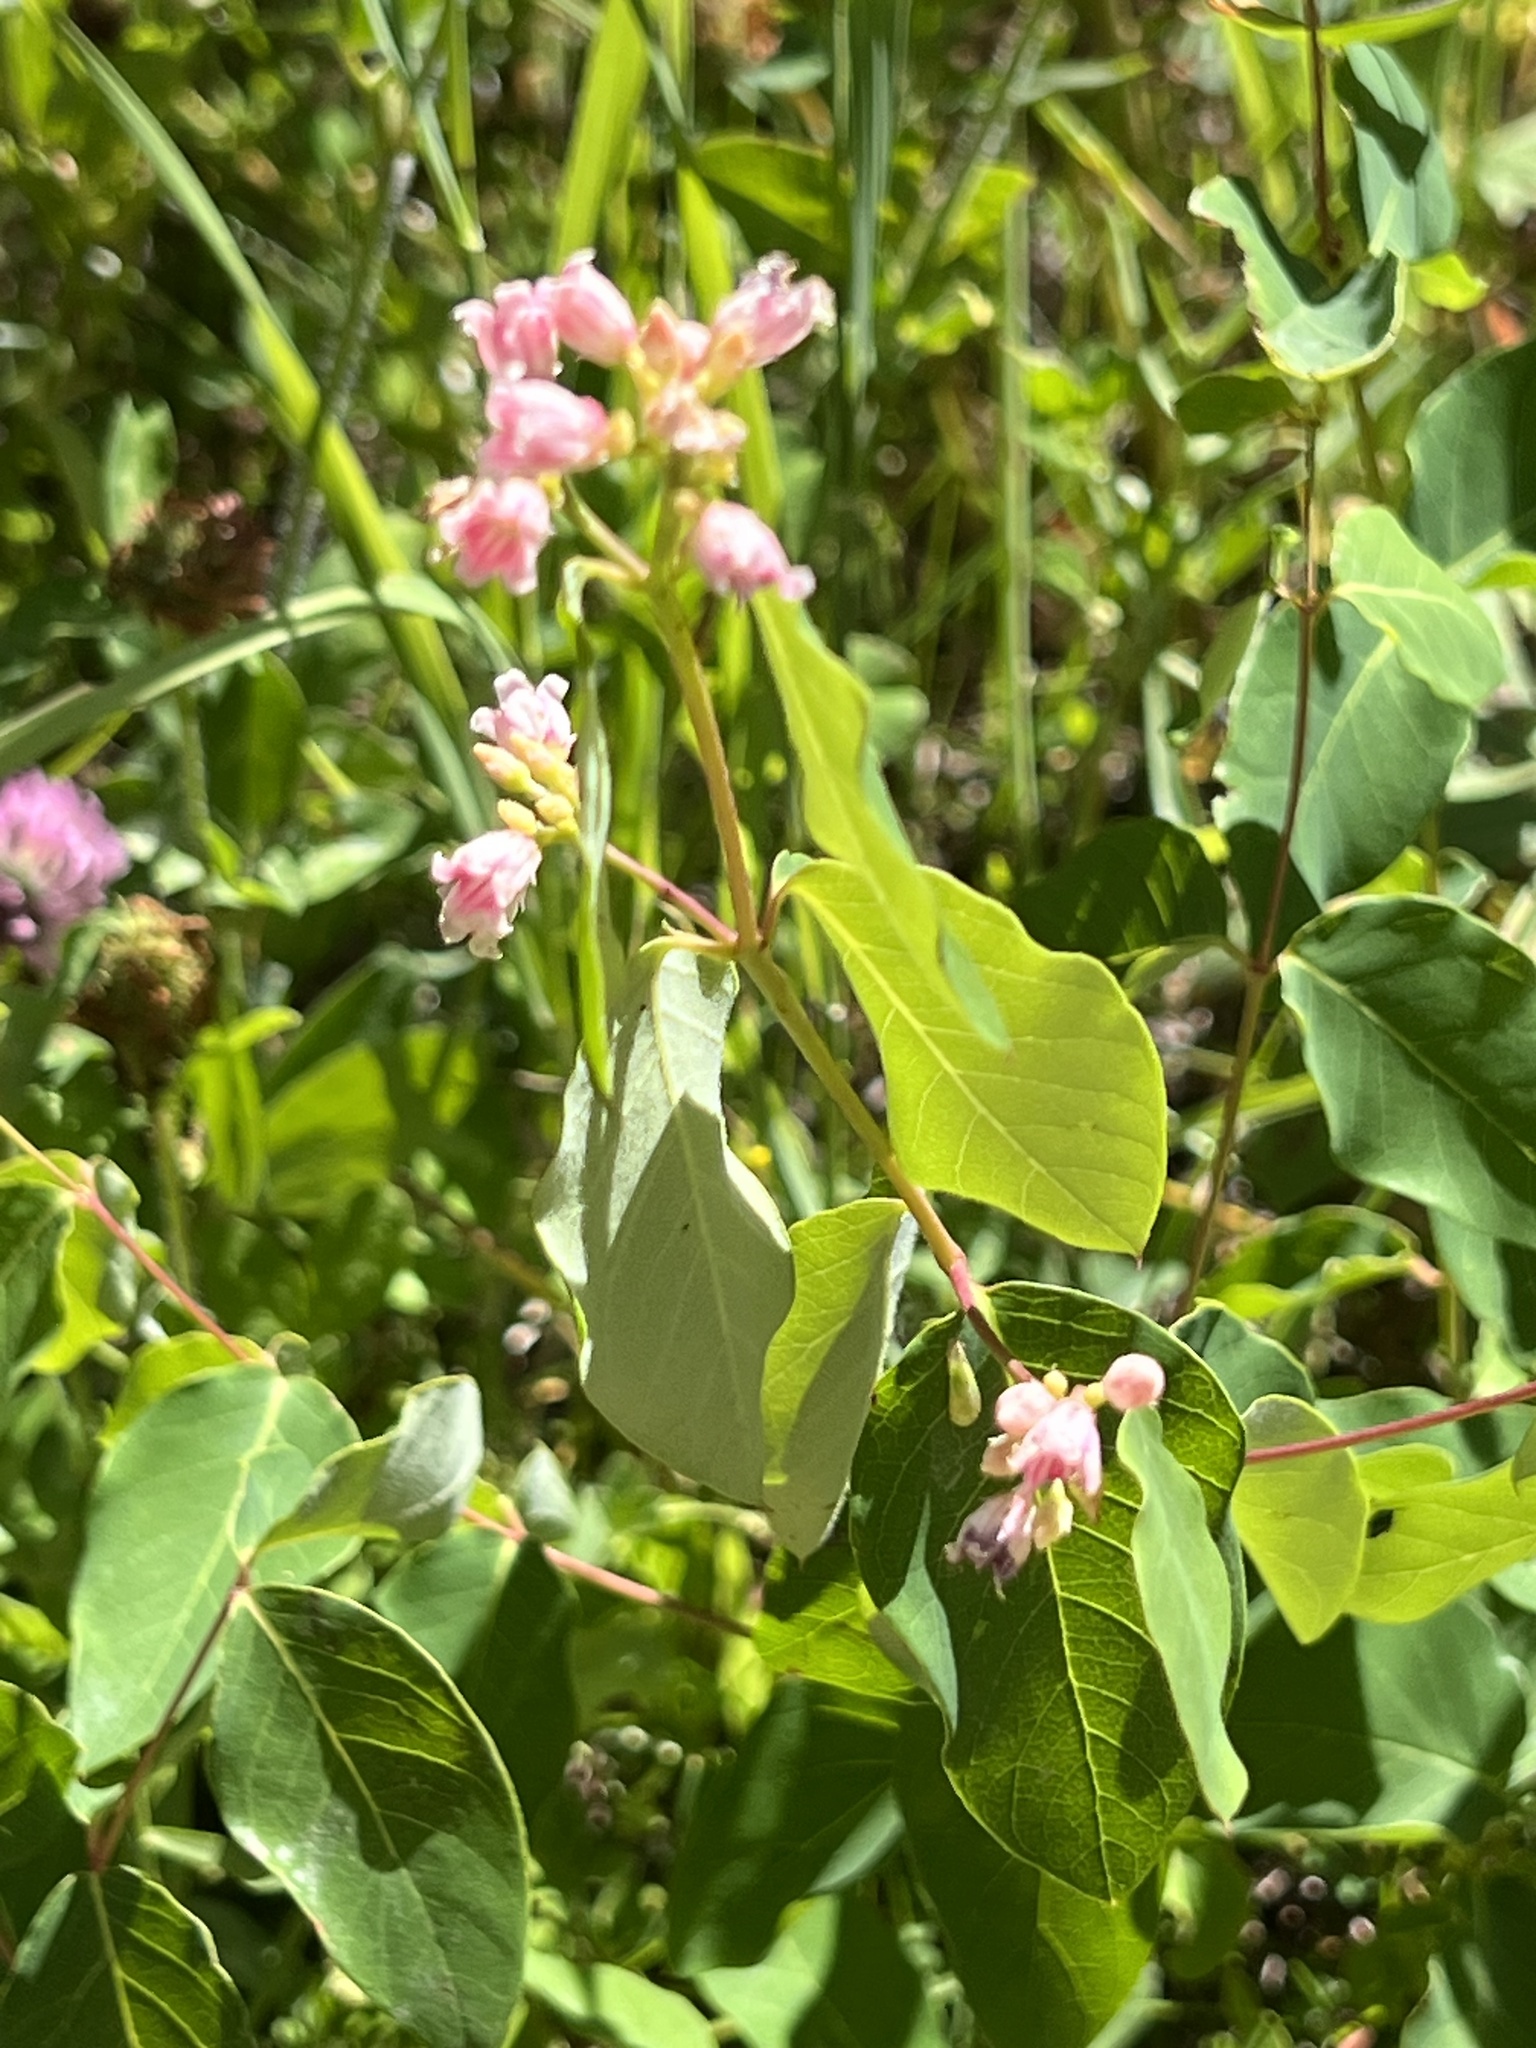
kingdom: Plantae
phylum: Tracheophyta
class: Magnoliopsida
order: Gentianales
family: Apocynaceae
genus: Apocynum
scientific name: Apocynum androsaemifolium
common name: Spreading dogbane
